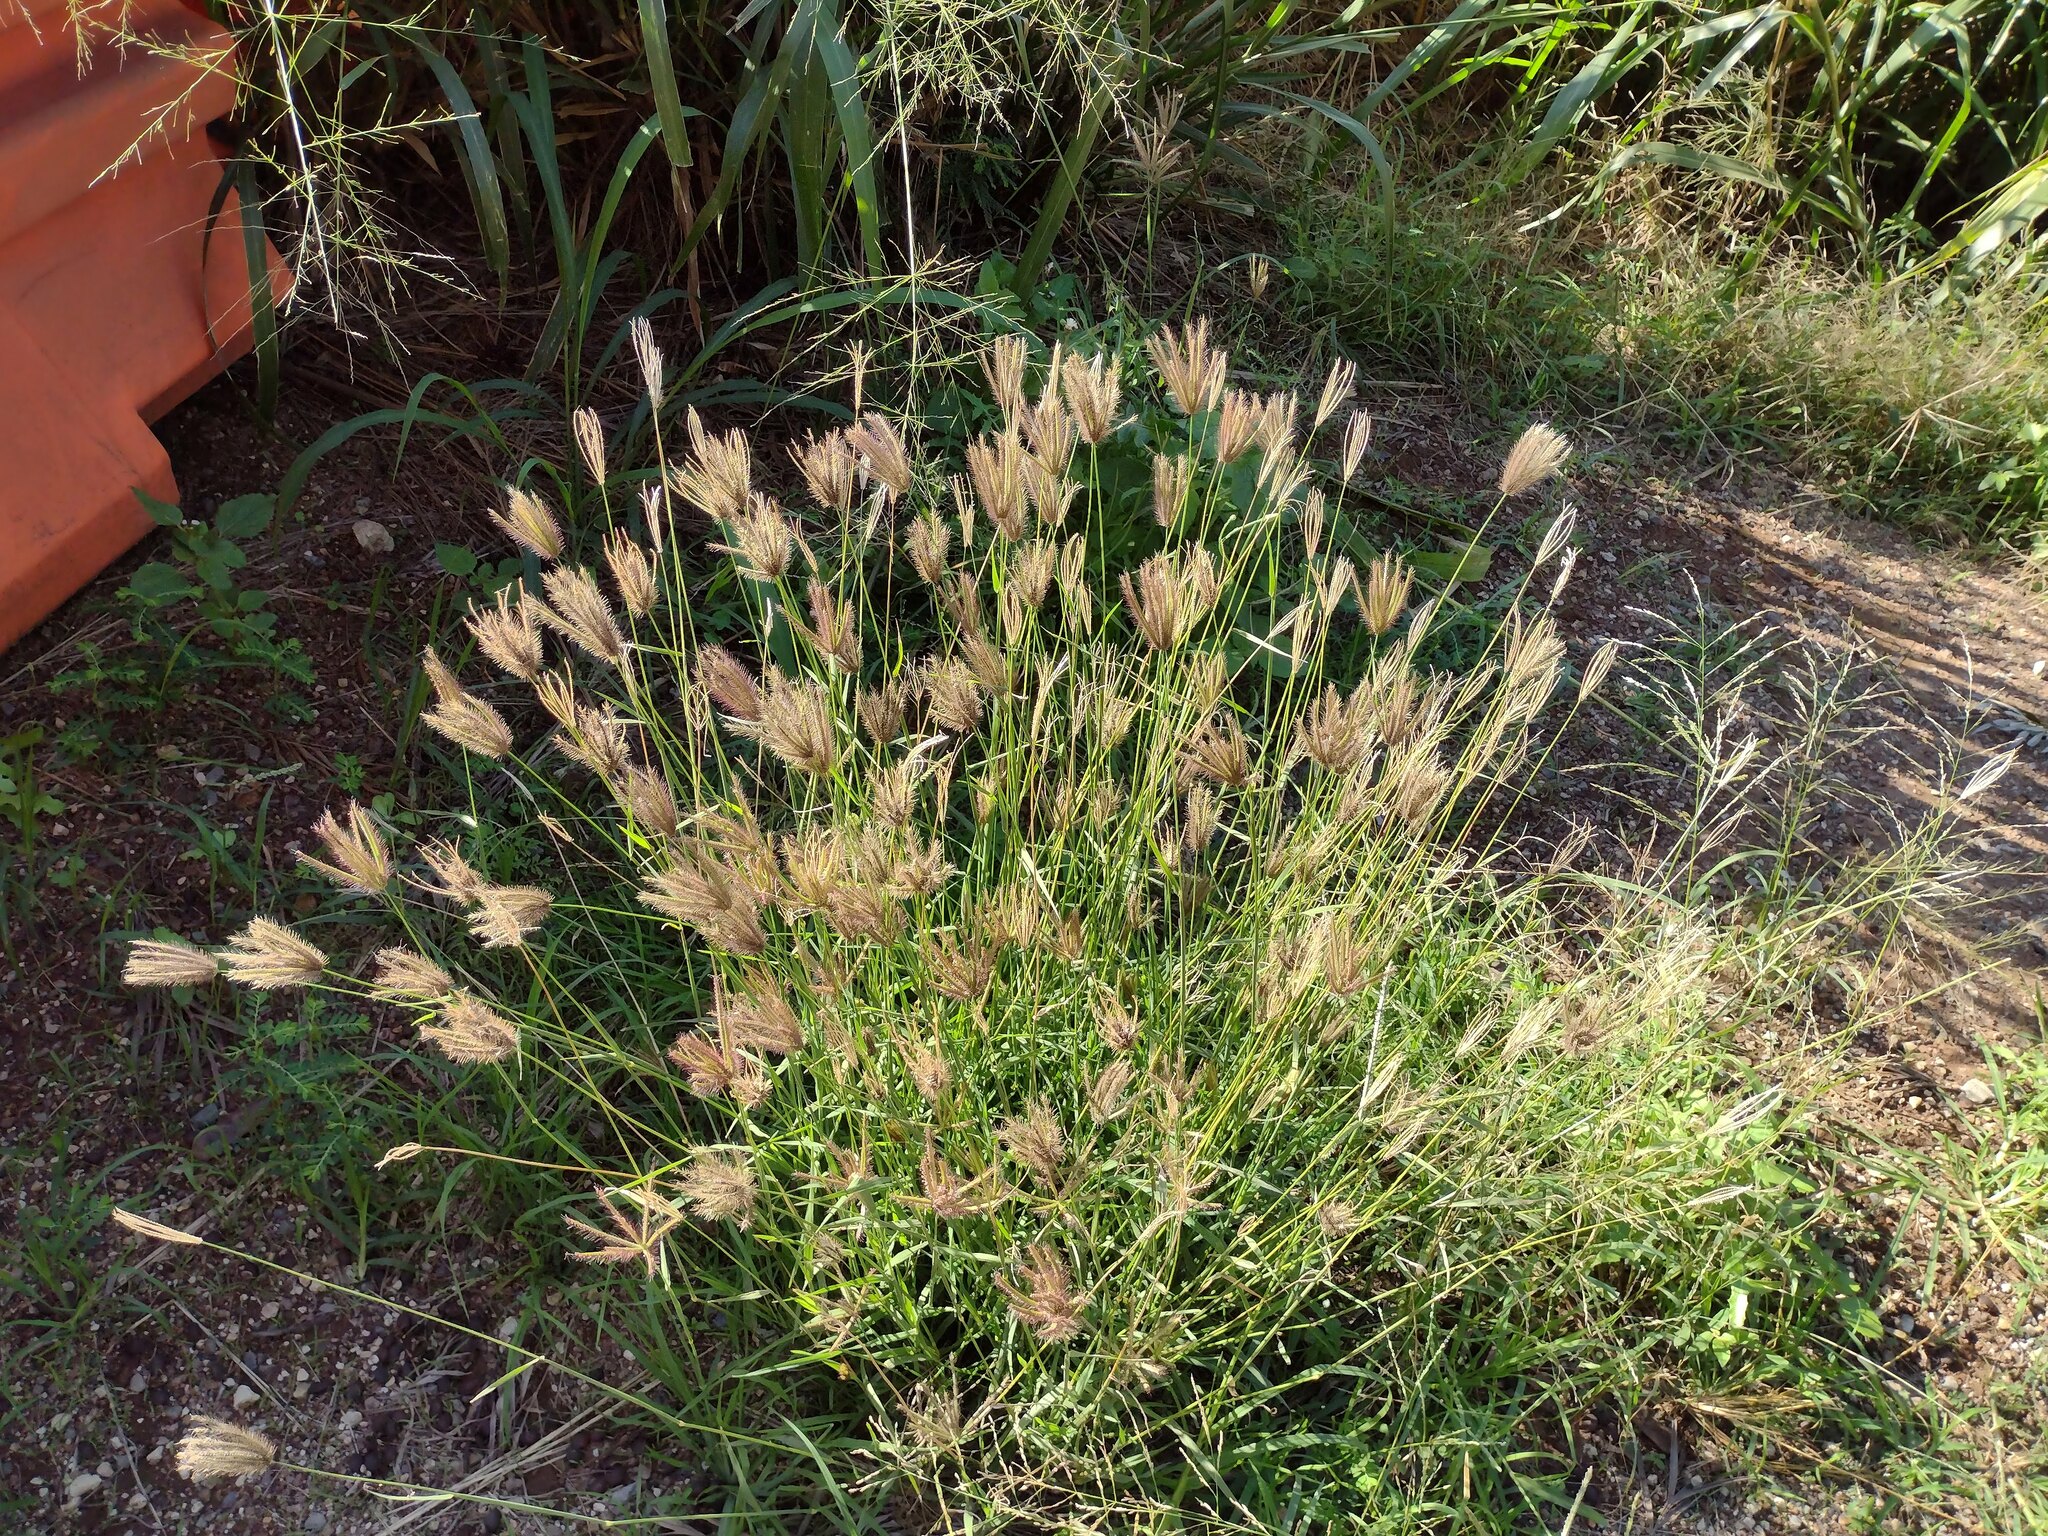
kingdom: Plantae
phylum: Tracheophyta
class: Liliopsida
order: Poales
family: Poaceae
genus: Chloris
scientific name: Chloris barbata
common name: Swollen fingergrass
